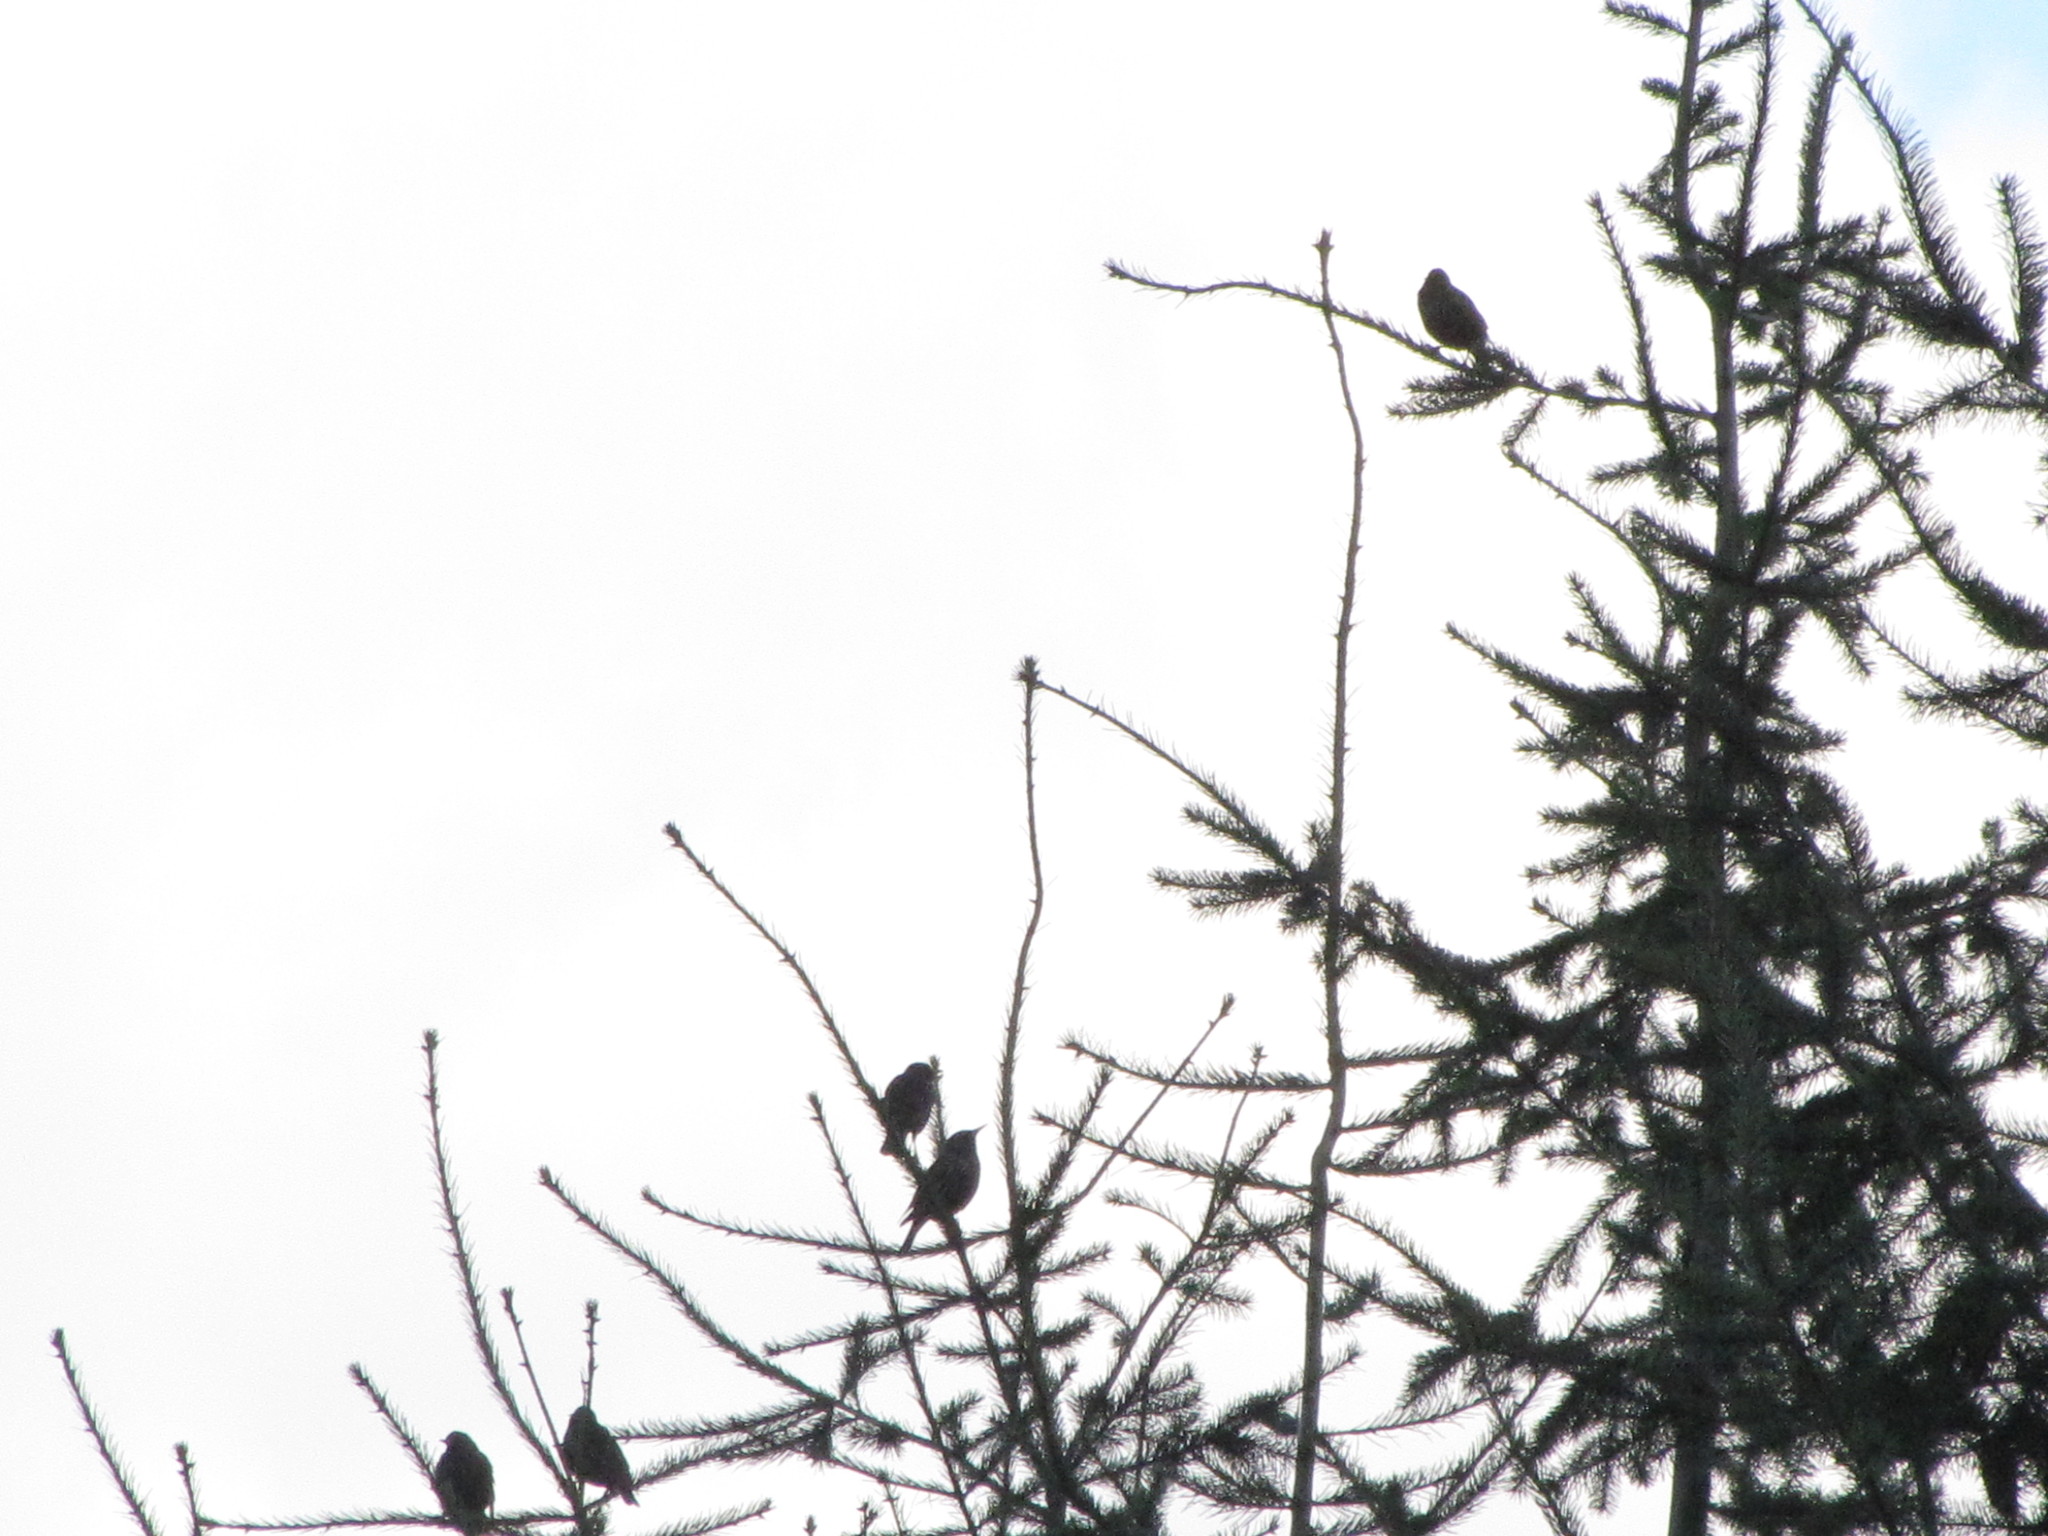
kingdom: Animalia
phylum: Chordata
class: Aves
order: Passeriformes
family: Sturnidae
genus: Sturnus
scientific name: Sturnus vulgaris
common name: Common starling
